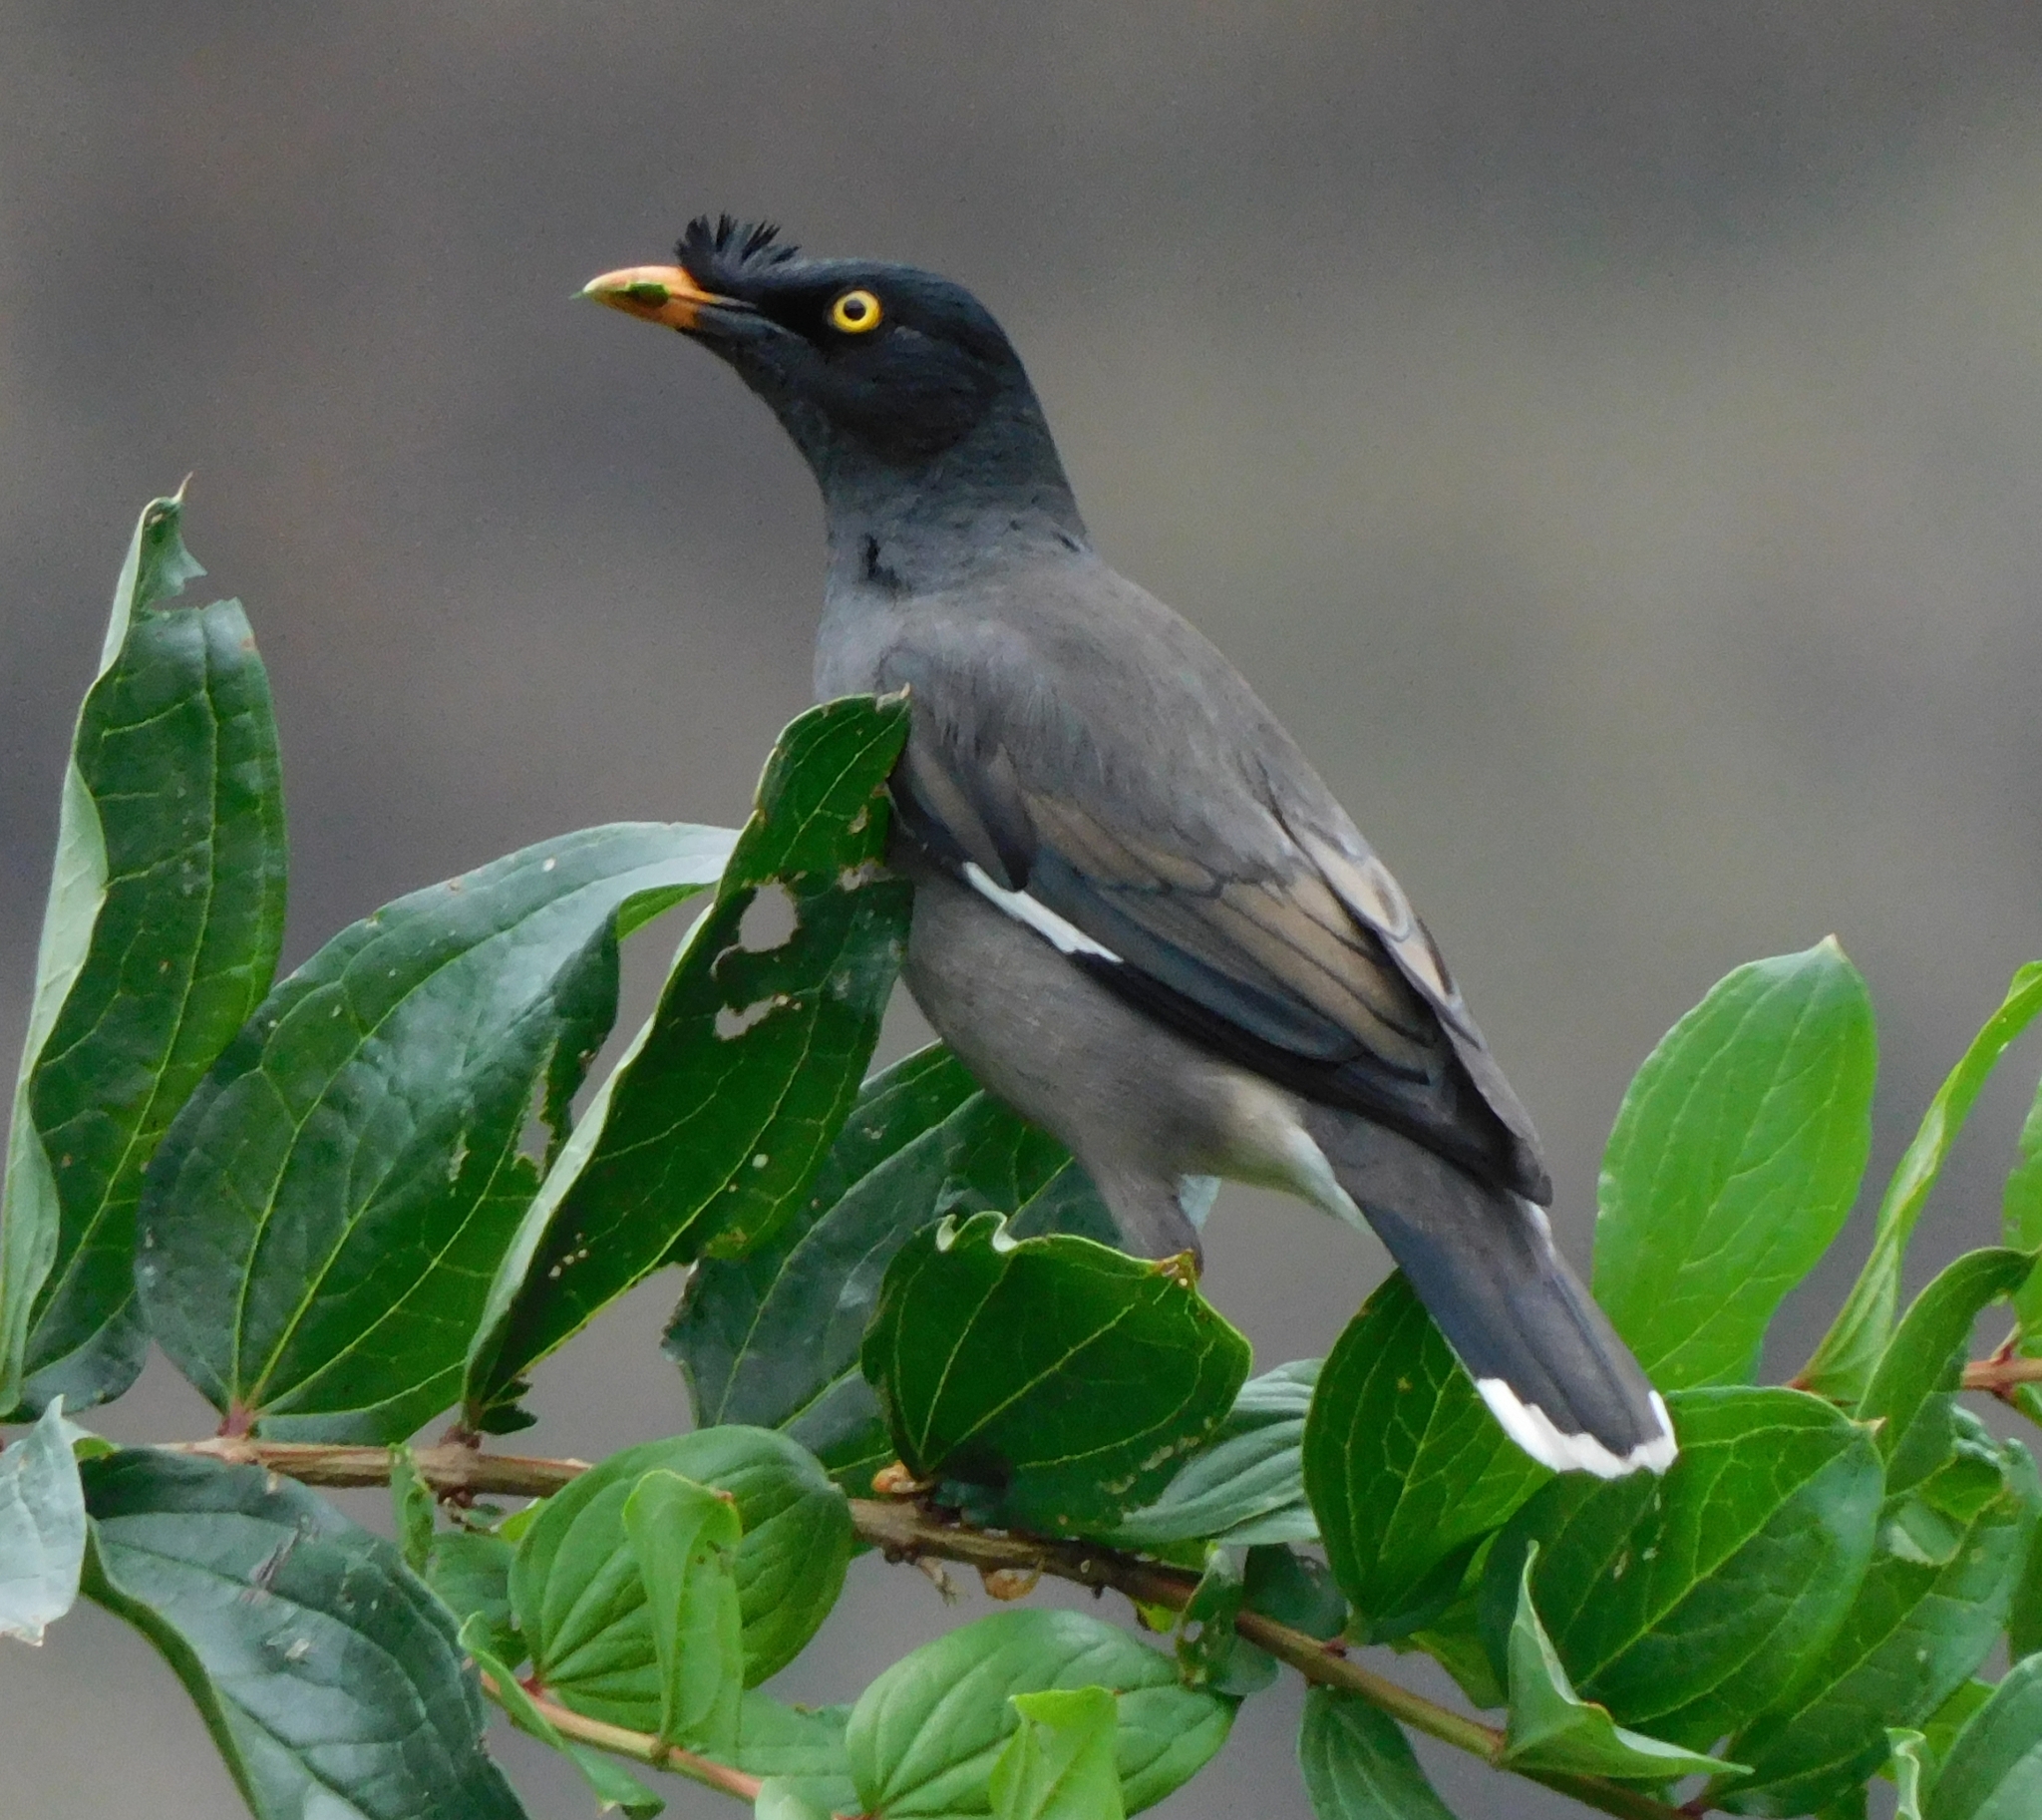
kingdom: Animalia
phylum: Chordata
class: Aves
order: Passeriformes
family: Sturnidae
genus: Acridotheres
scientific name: Acridotheres fuscus
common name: Jungle myna
